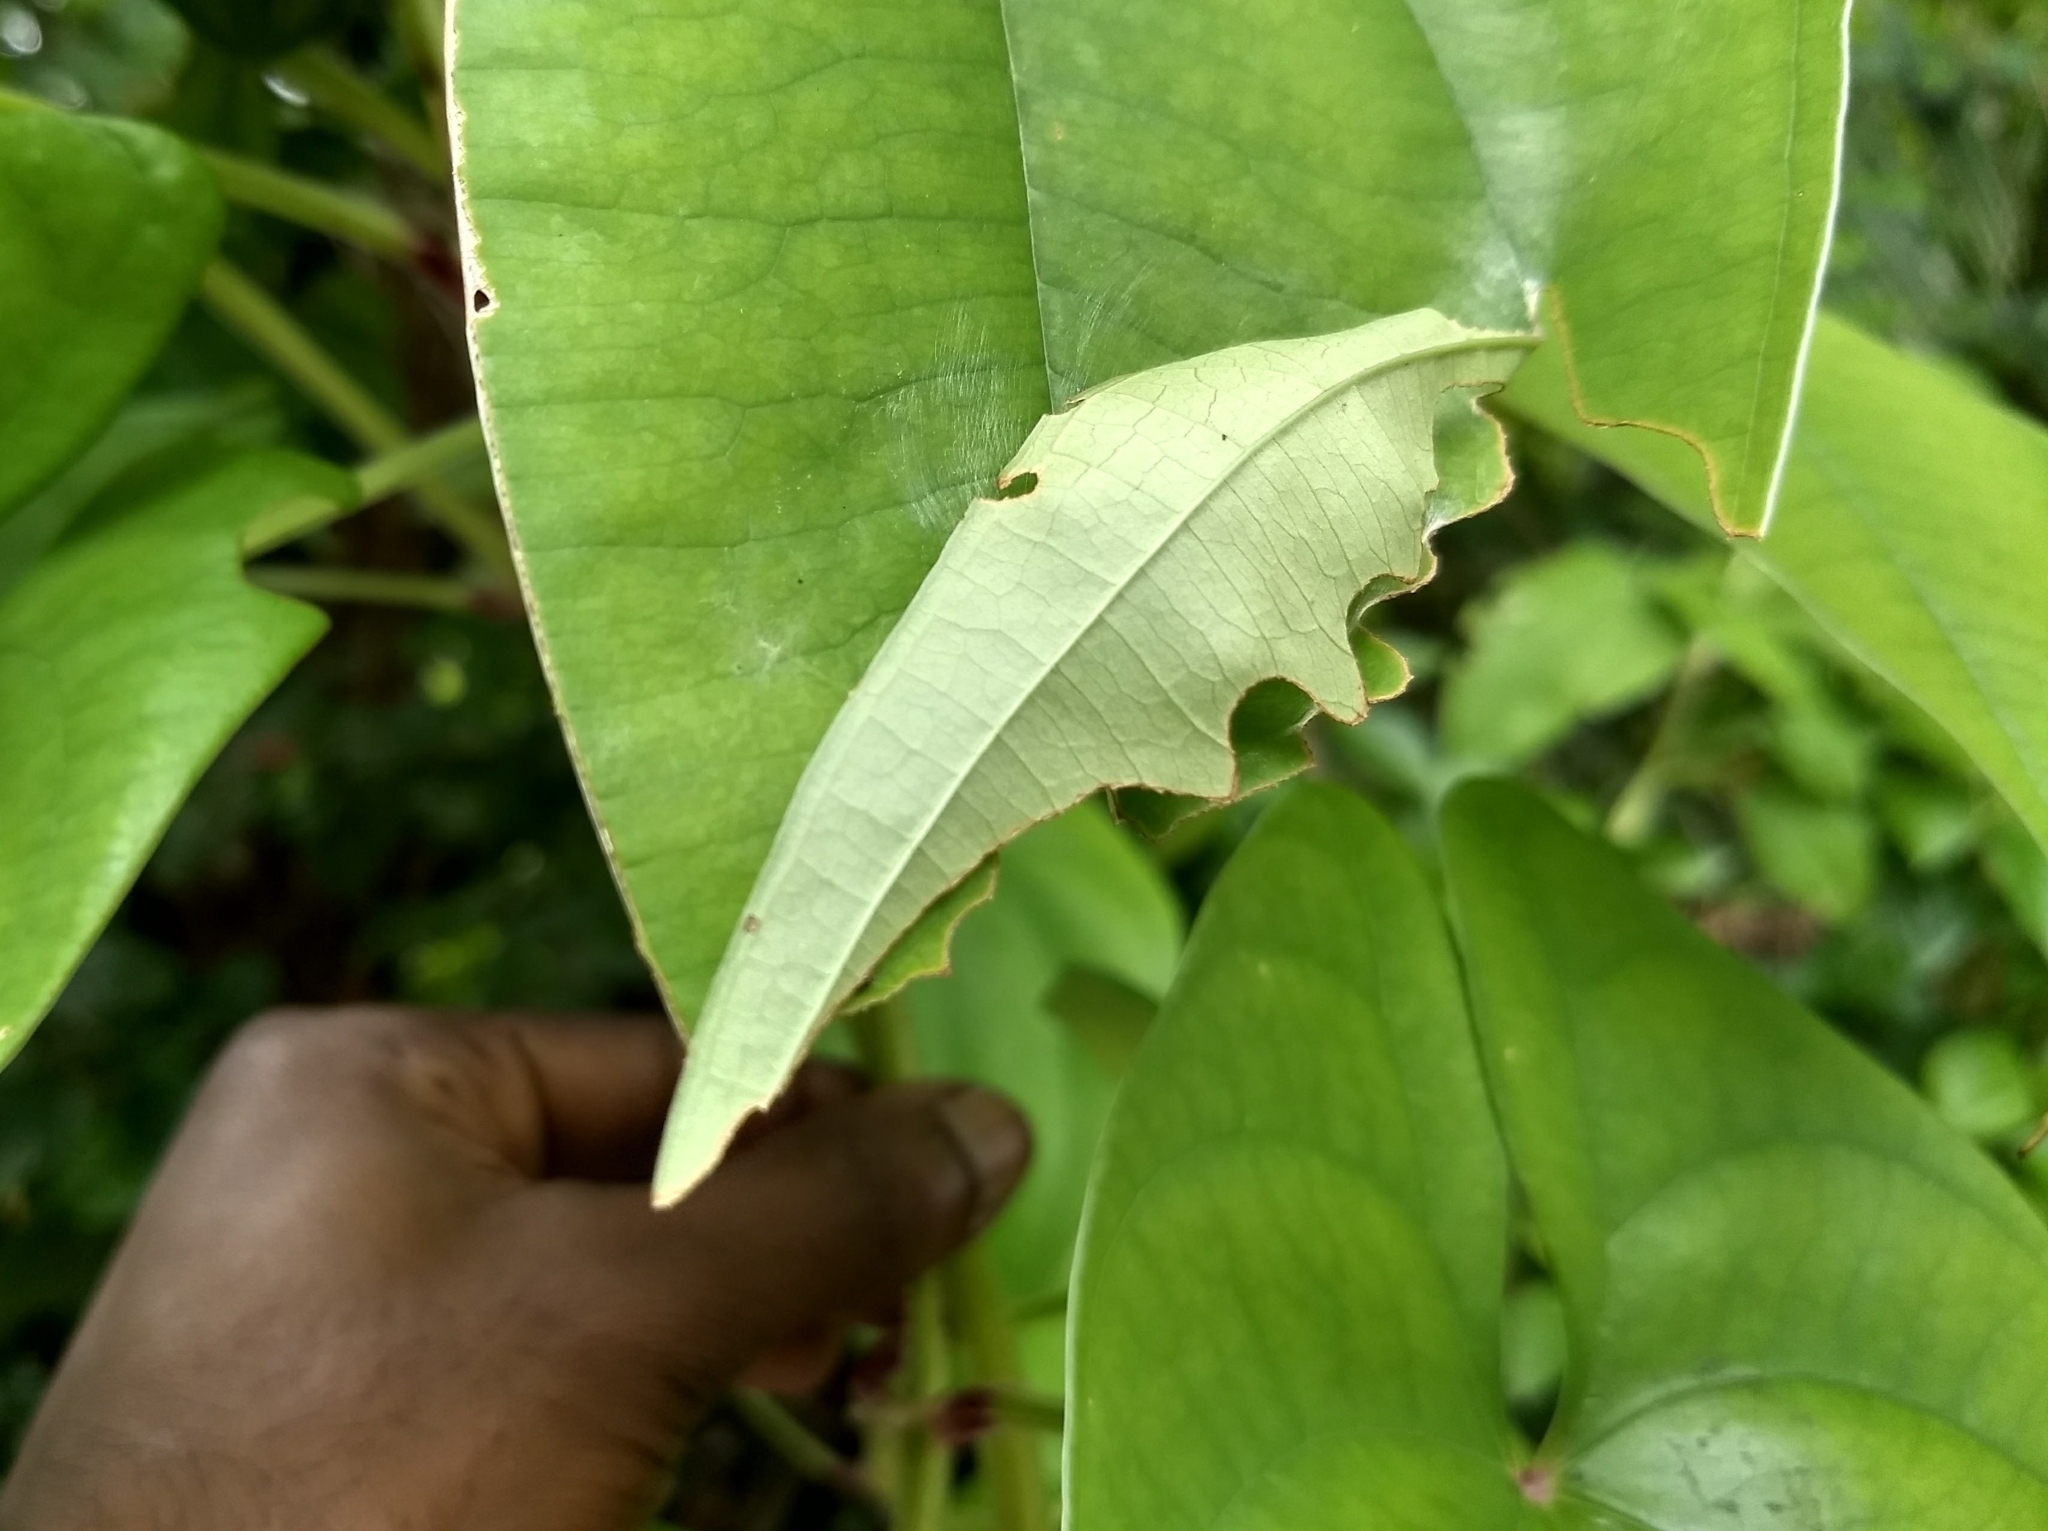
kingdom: Animalia
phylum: Arthropoda
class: Insecta
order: Lepidoptera
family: Hesperiidae
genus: Tagiades
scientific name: Tagiades litigiosa
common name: Water snow flat
